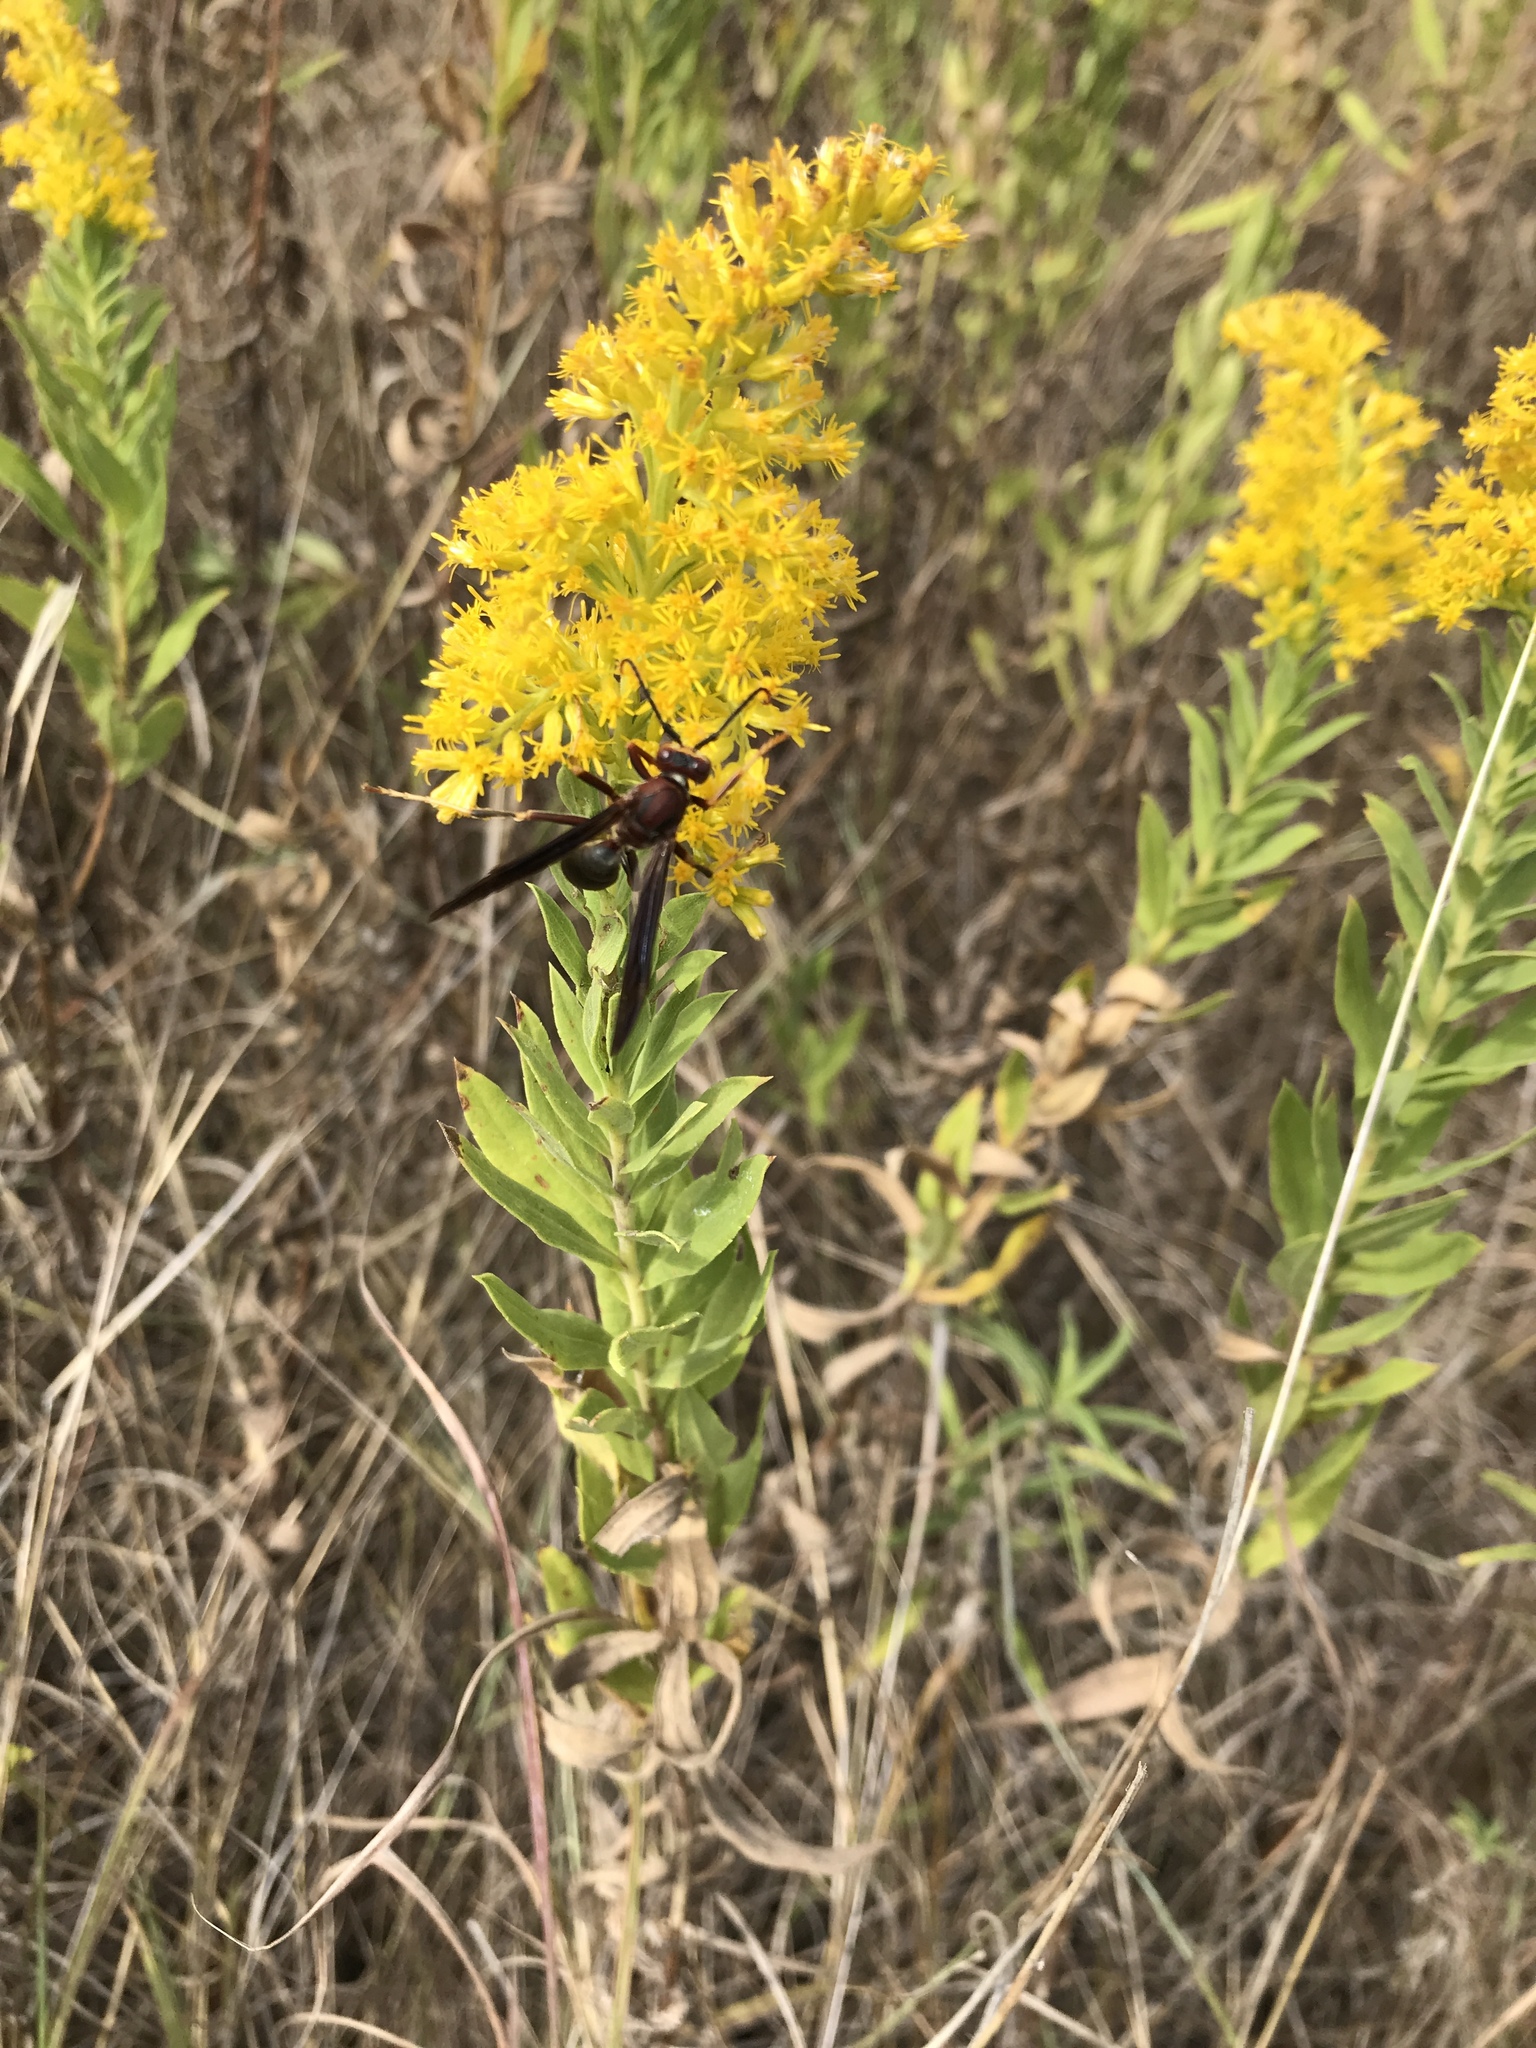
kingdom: Animalia
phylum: Arthropoda
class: Insecta
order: Hymenoptera
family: Eumenidae
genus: Polistes
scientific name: Polistes metricus
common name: Metric paper wasp
